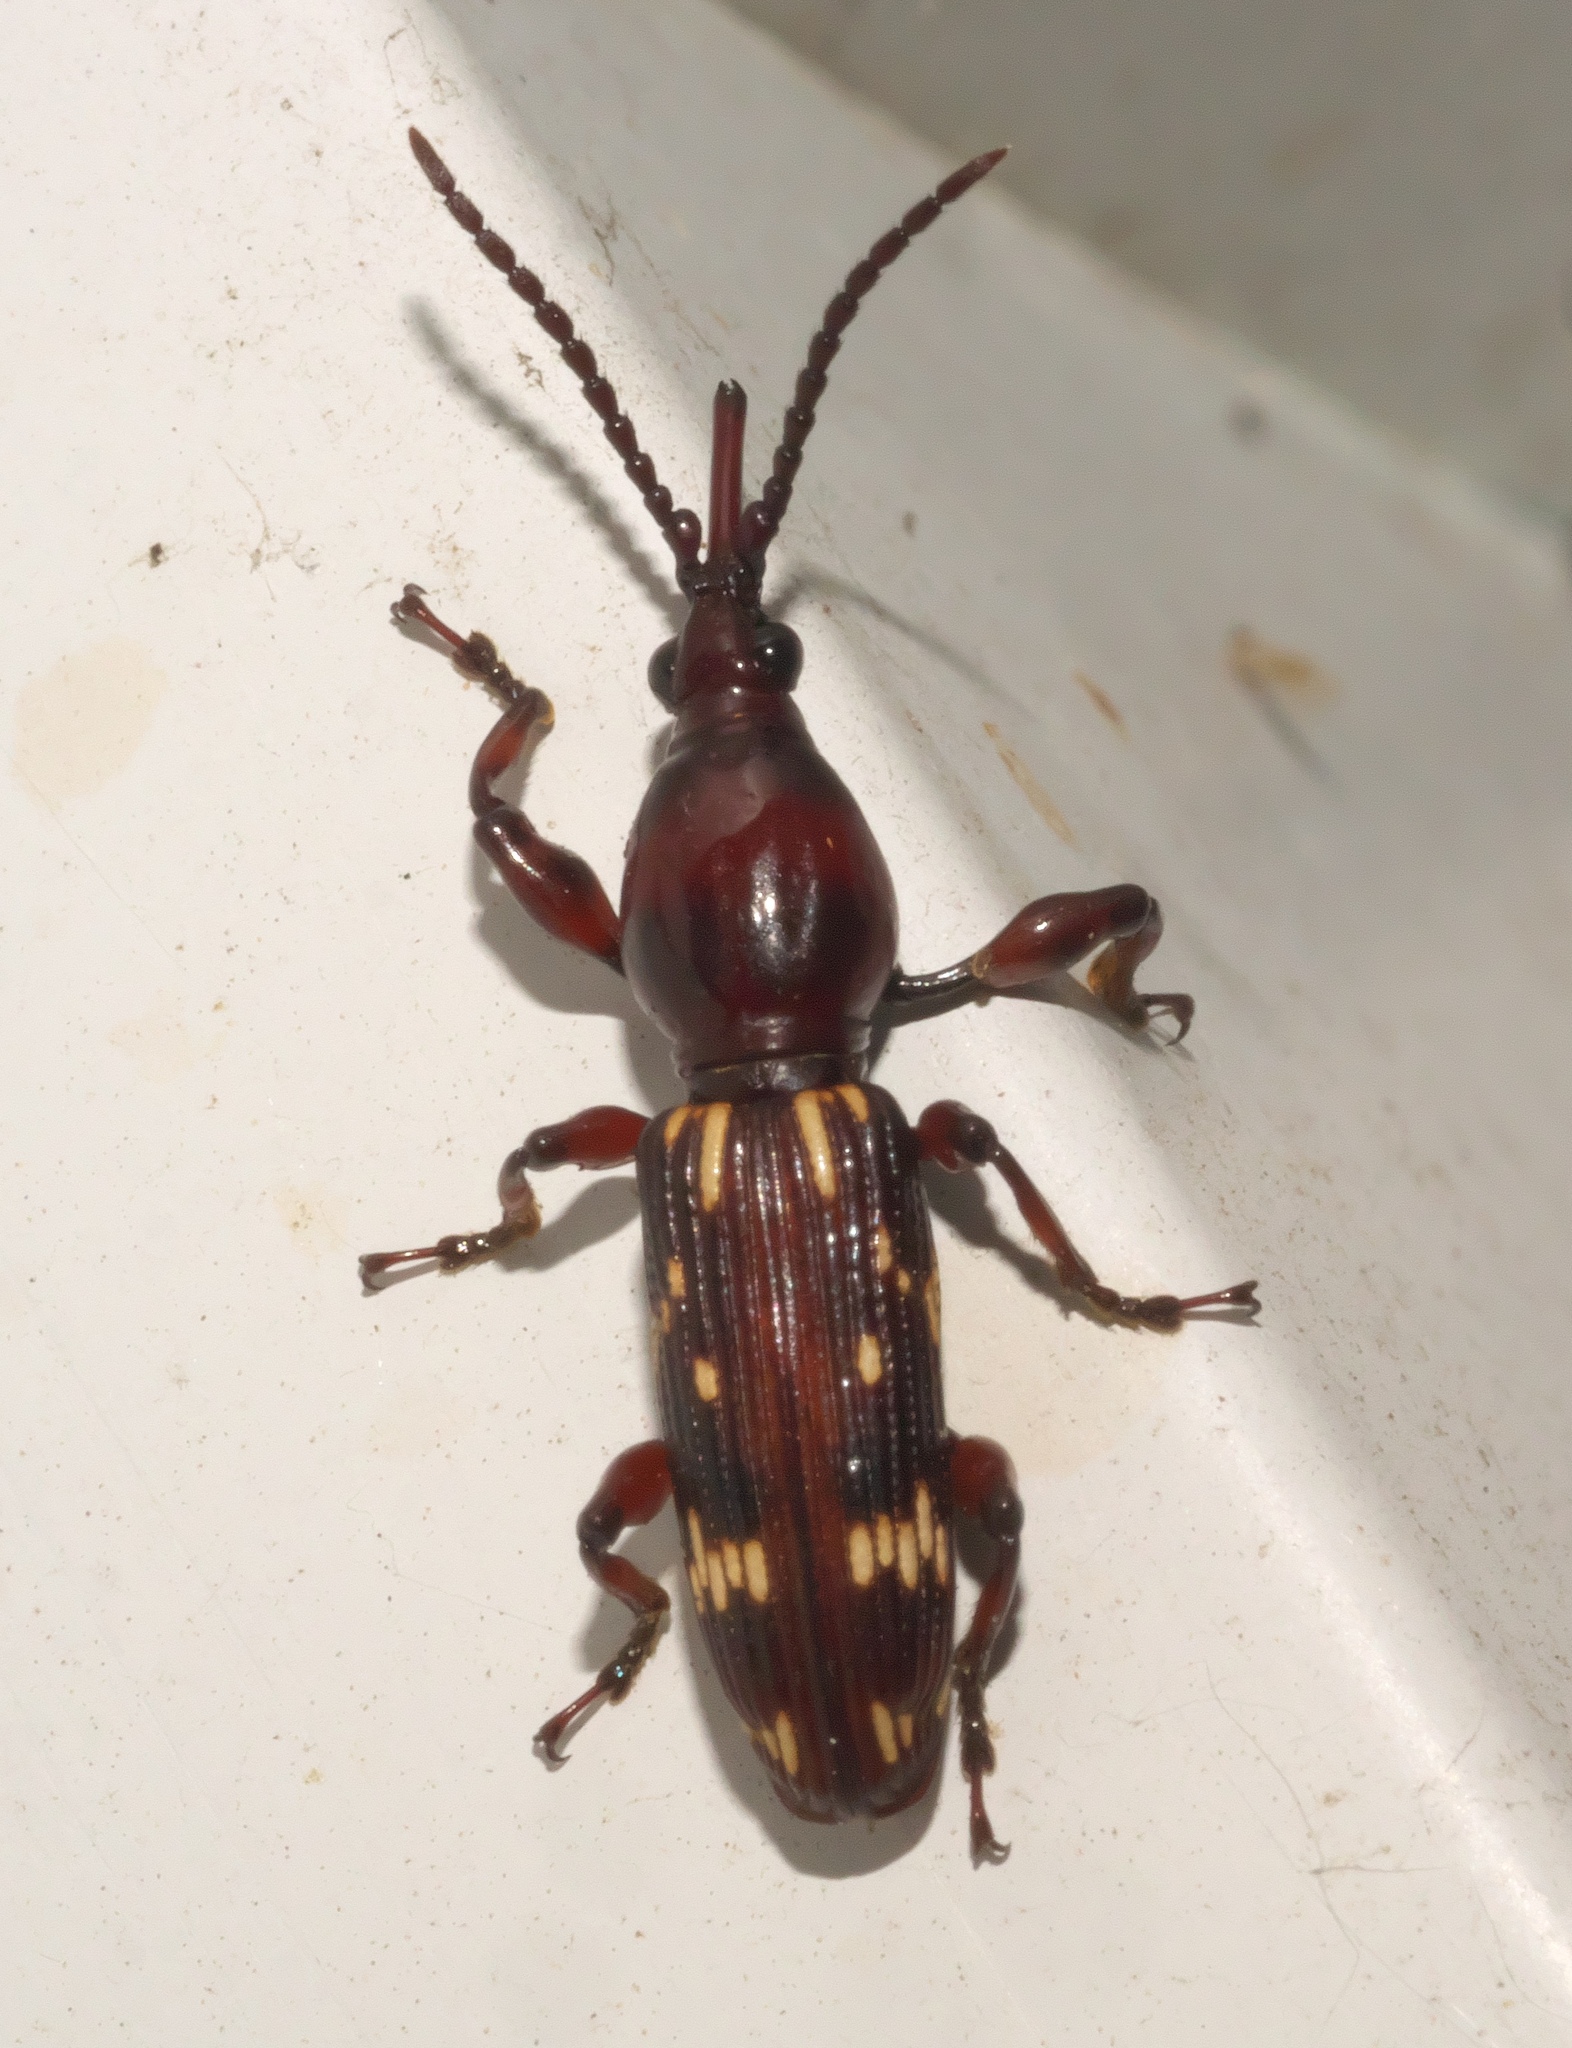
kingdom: Animalia
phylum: Arthropoda
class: Insecta
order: Coleoptera
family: Brentidae
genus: Arrenodes
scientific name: Arrenodes minutus
